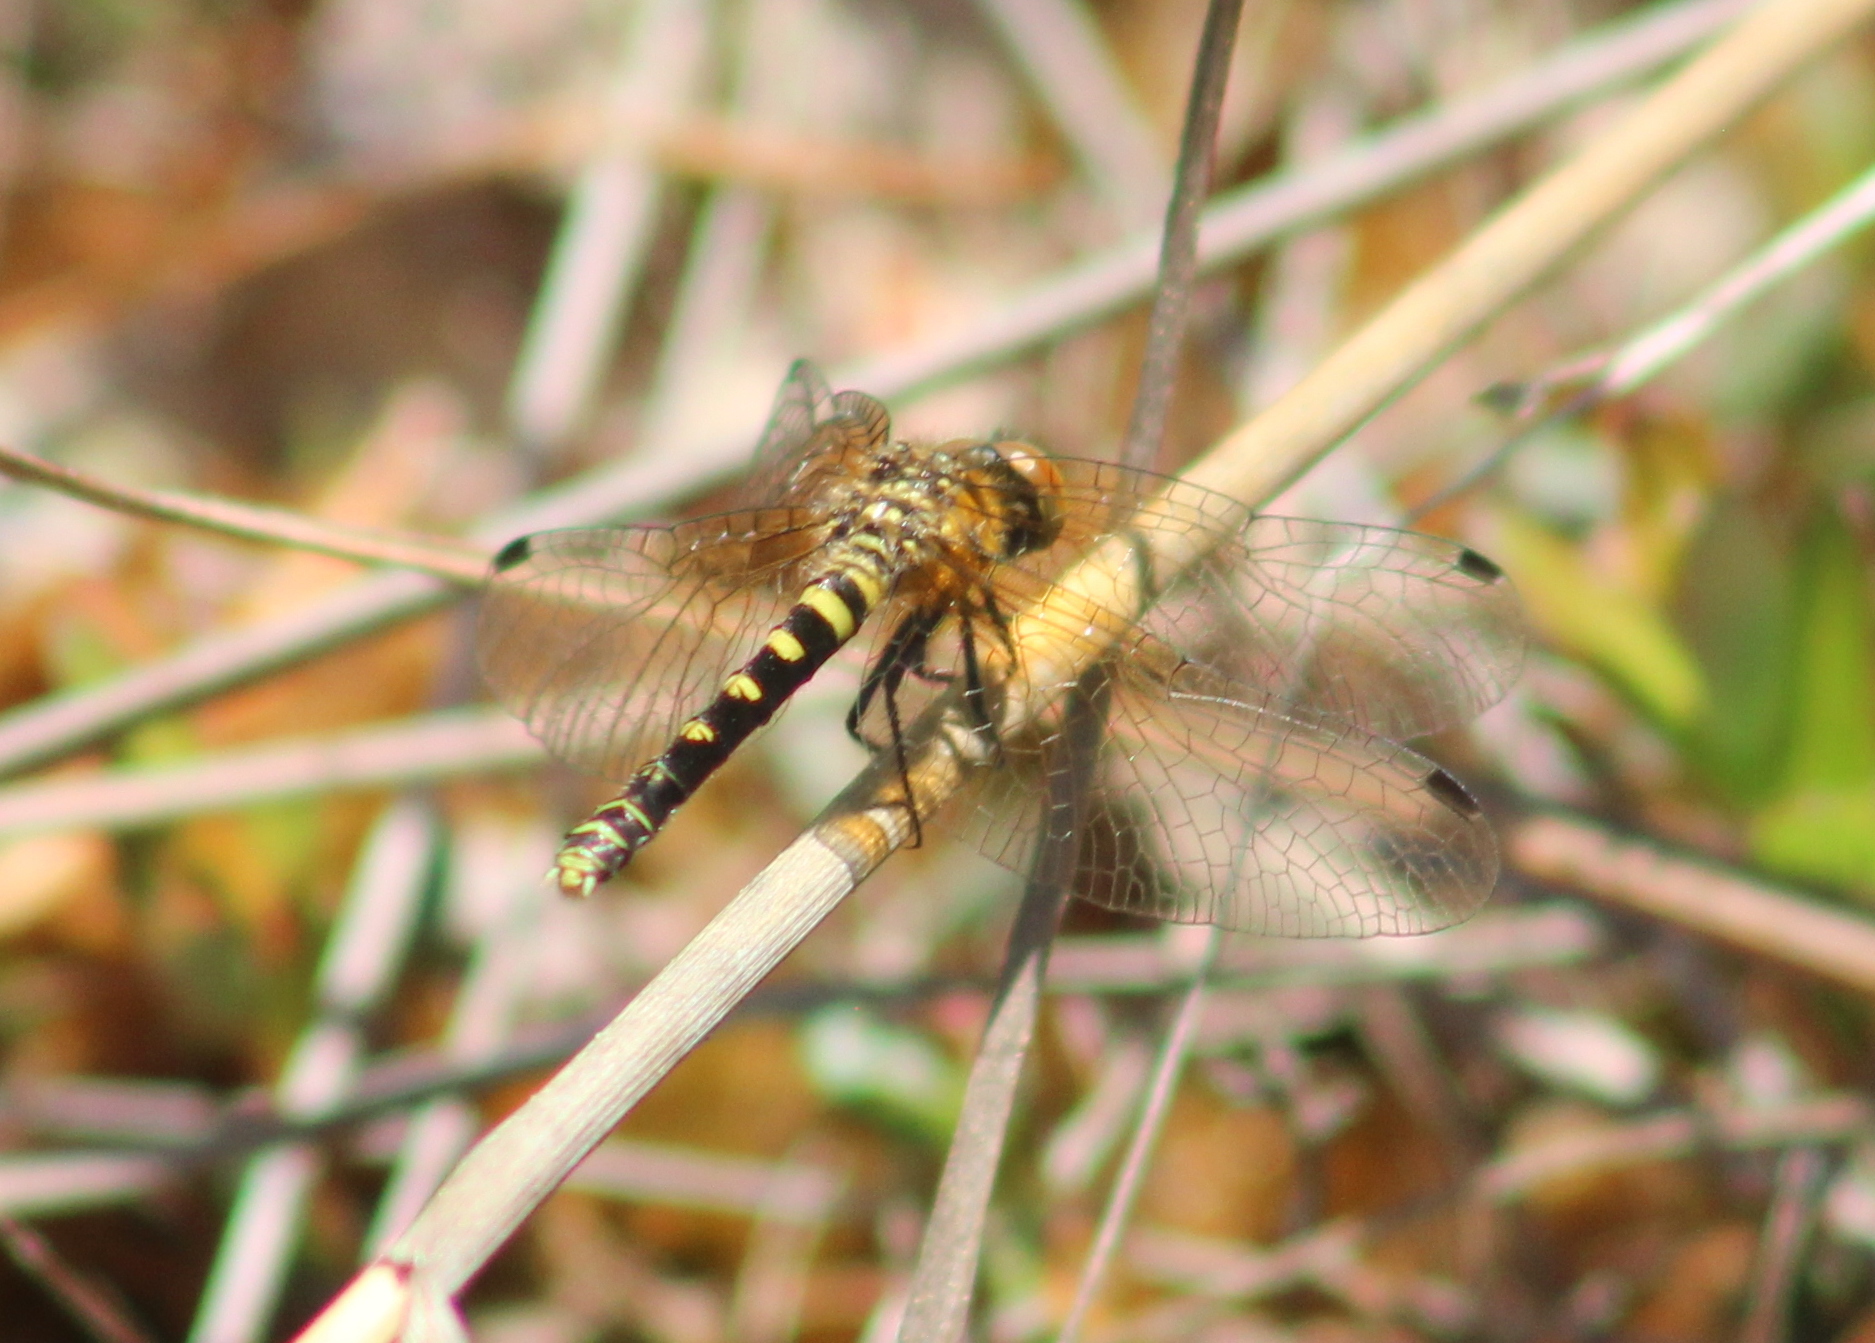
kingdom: Animalia
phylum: Arthropoda
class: Insecta
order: Odonata
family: Libellulidae
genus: Nannothemis
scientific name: Nannothemis bella
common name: Elfin skimmer
